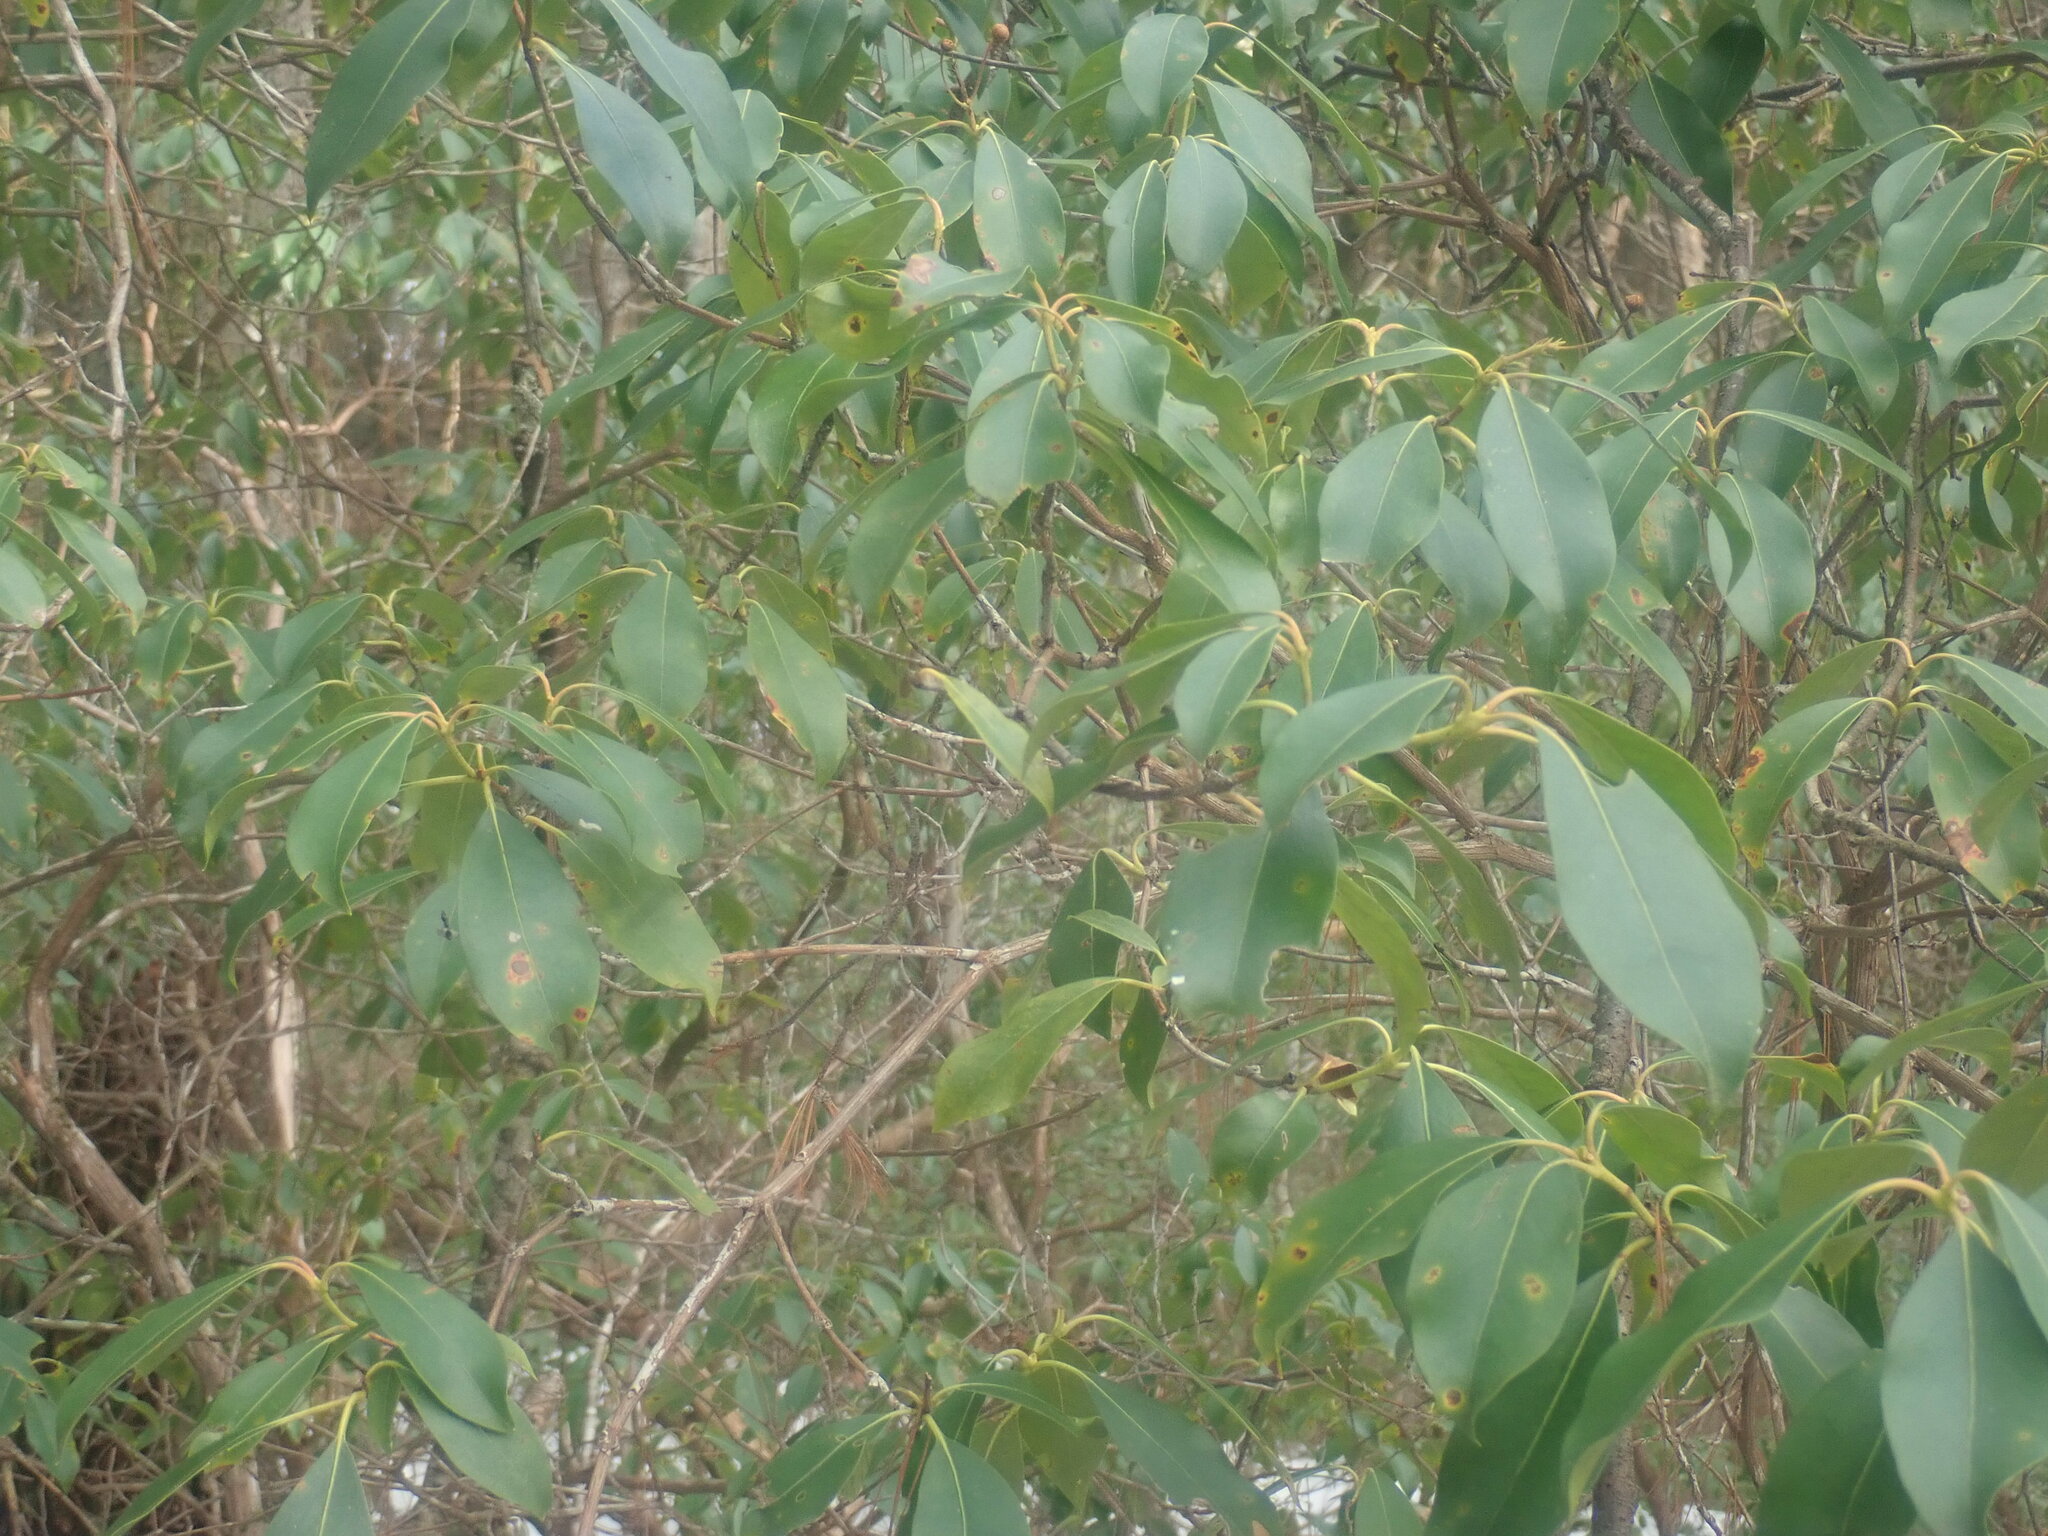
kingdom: Plantae
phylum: Tracheophyta
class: Magnoliopsida
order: Ericales
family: Ericaceae
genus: Kalmia
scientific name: Kalmia latifolia
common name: Mountain-laurel
